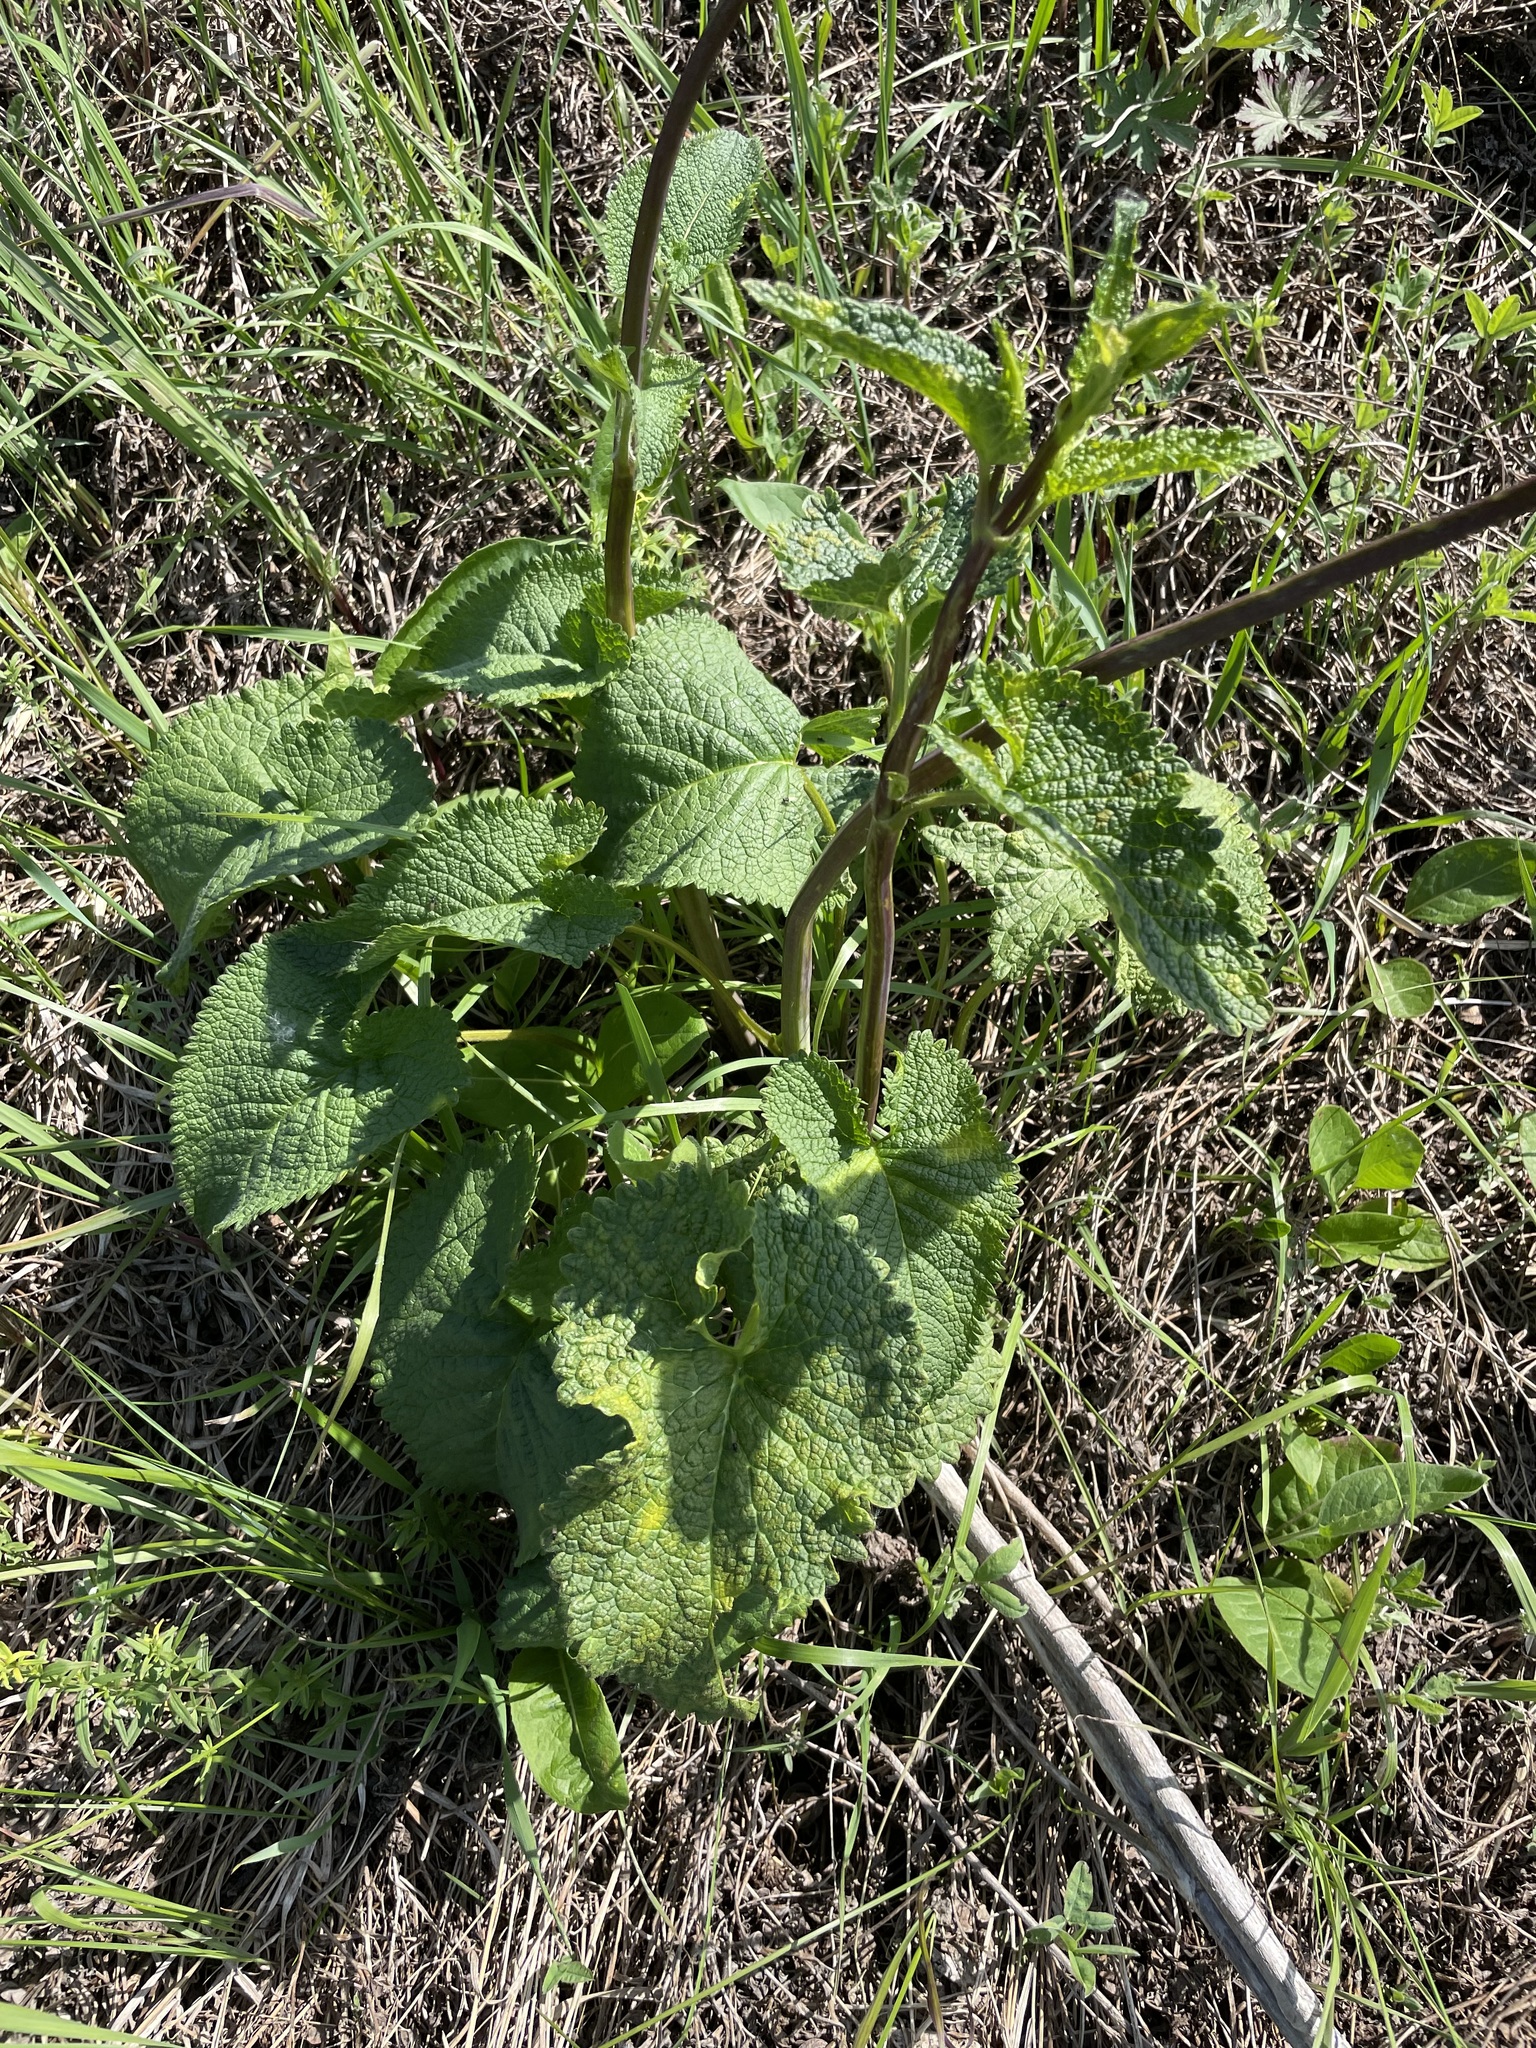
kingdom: Plantae
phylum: Tracheophyta
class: Magnoliopsida
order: Lamiales
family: Lamiaceae
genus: Phlomoides
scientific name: Phlomoides tuberosa
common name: Tuberous jerusalem sage
